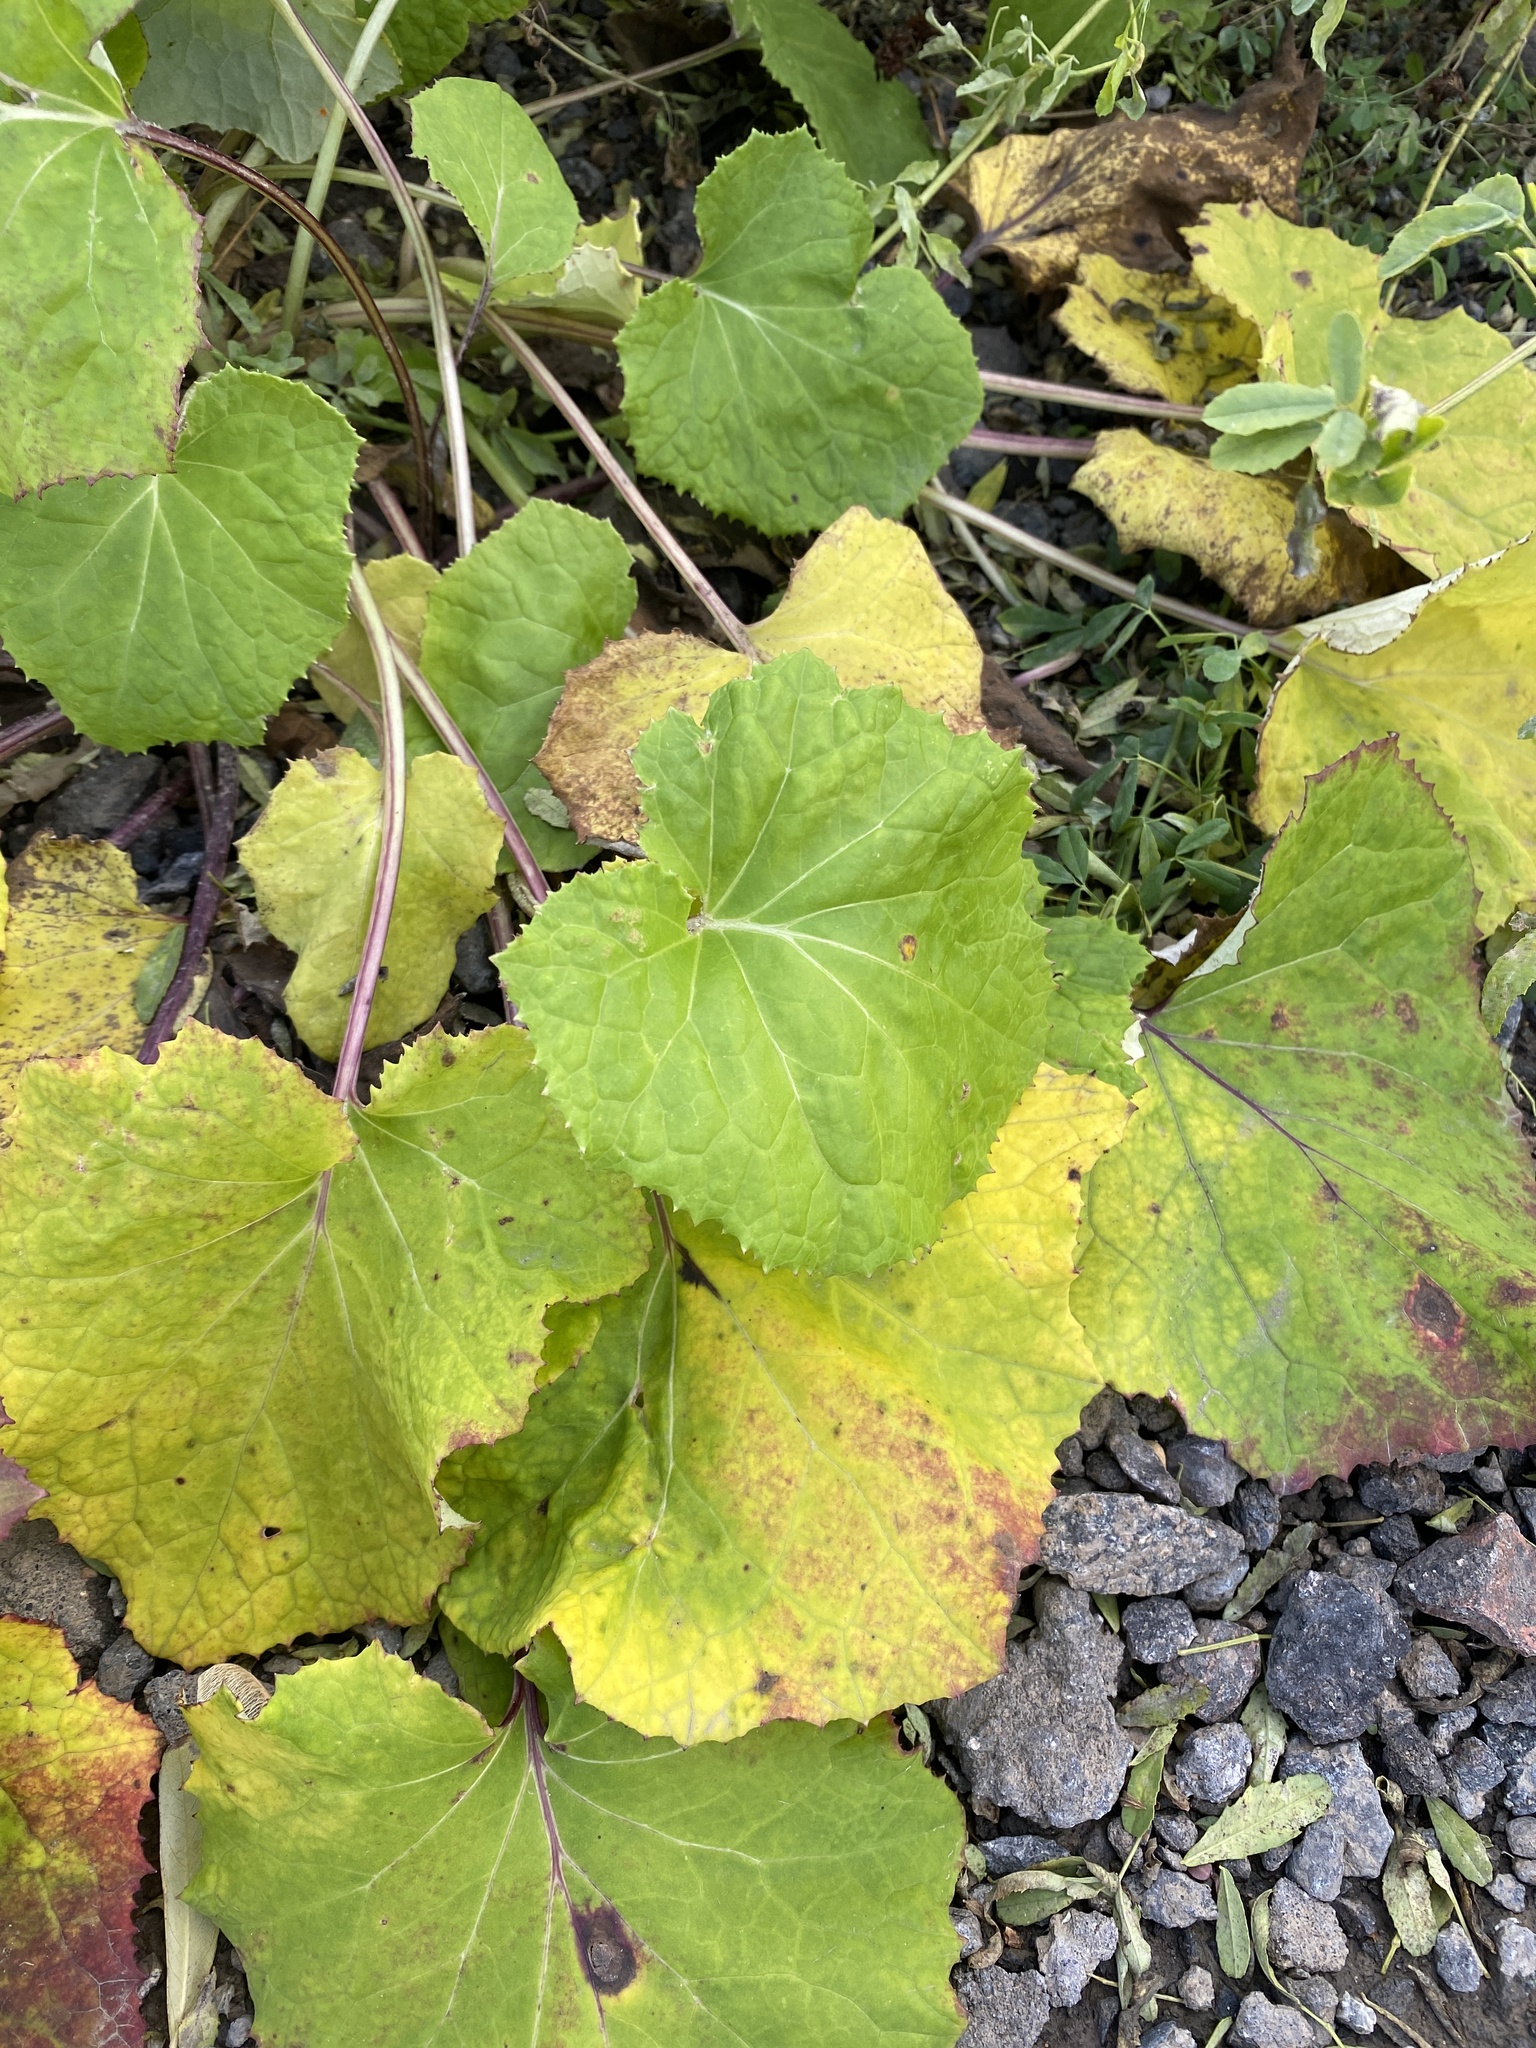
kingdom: Plantae
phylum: Tracheophyta
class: Magnoliopsida
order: Asterales
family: Asteraceae
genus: Tussilago
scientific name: Tussilago farfara
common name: Coltsfoot
